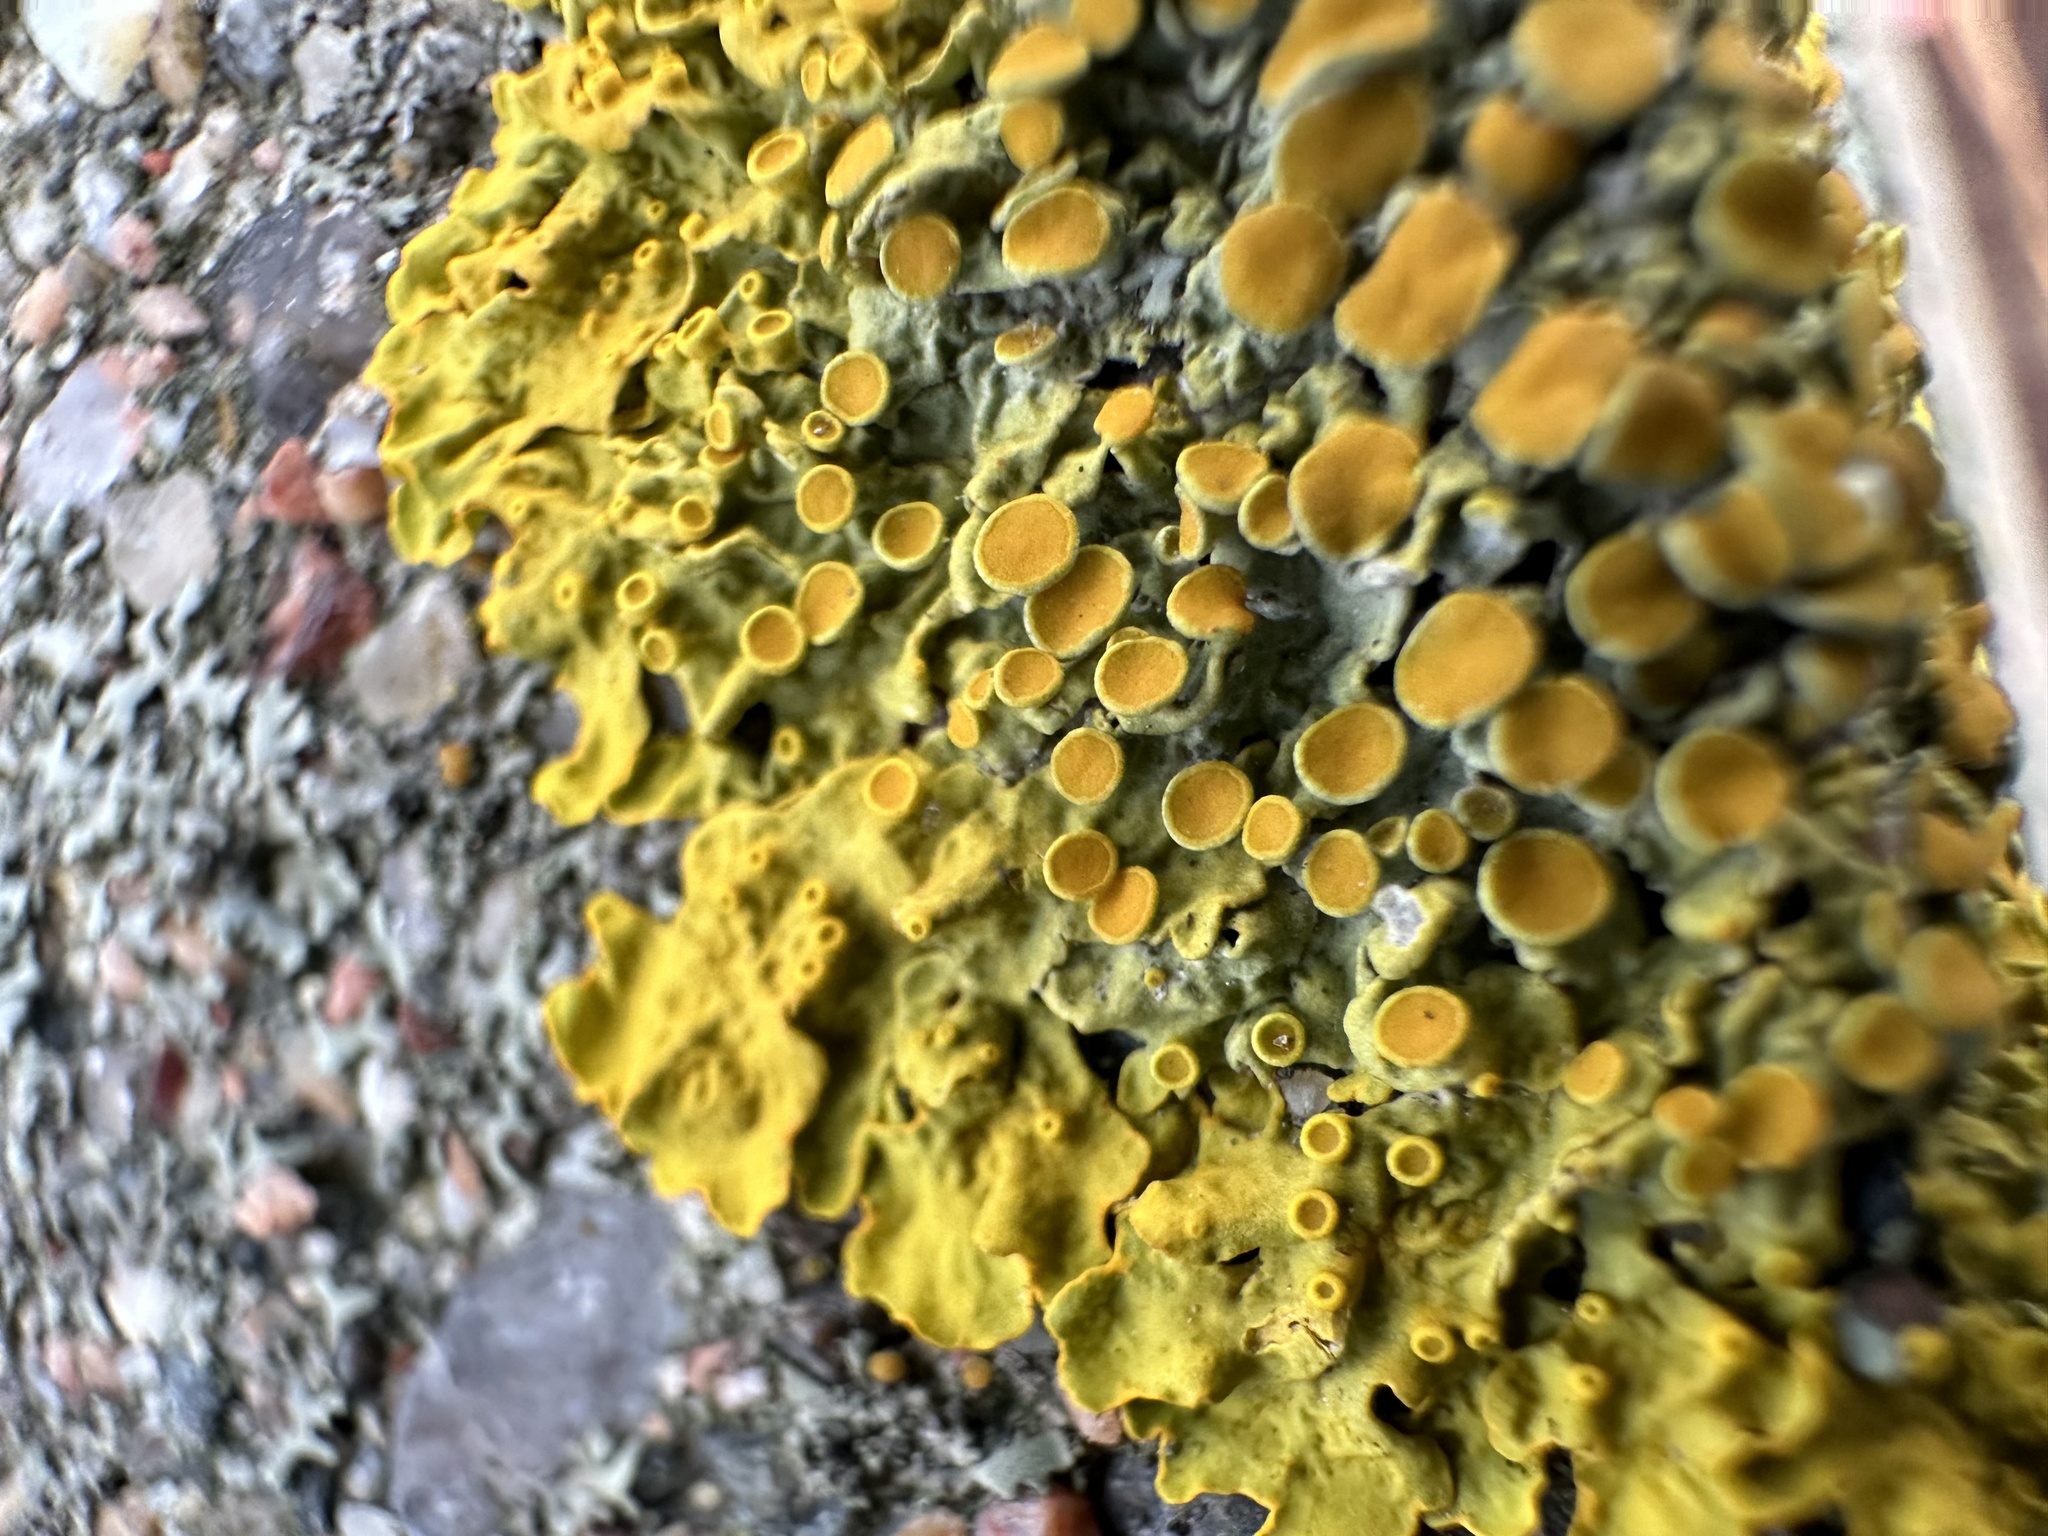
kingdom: Fungi
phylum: Ascomycota
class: Lecanoromycetes
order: Teloschistales
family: Teloschistaceae
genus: Xanthoria
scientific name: Xanthoria parietina
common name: Common orange lichen
